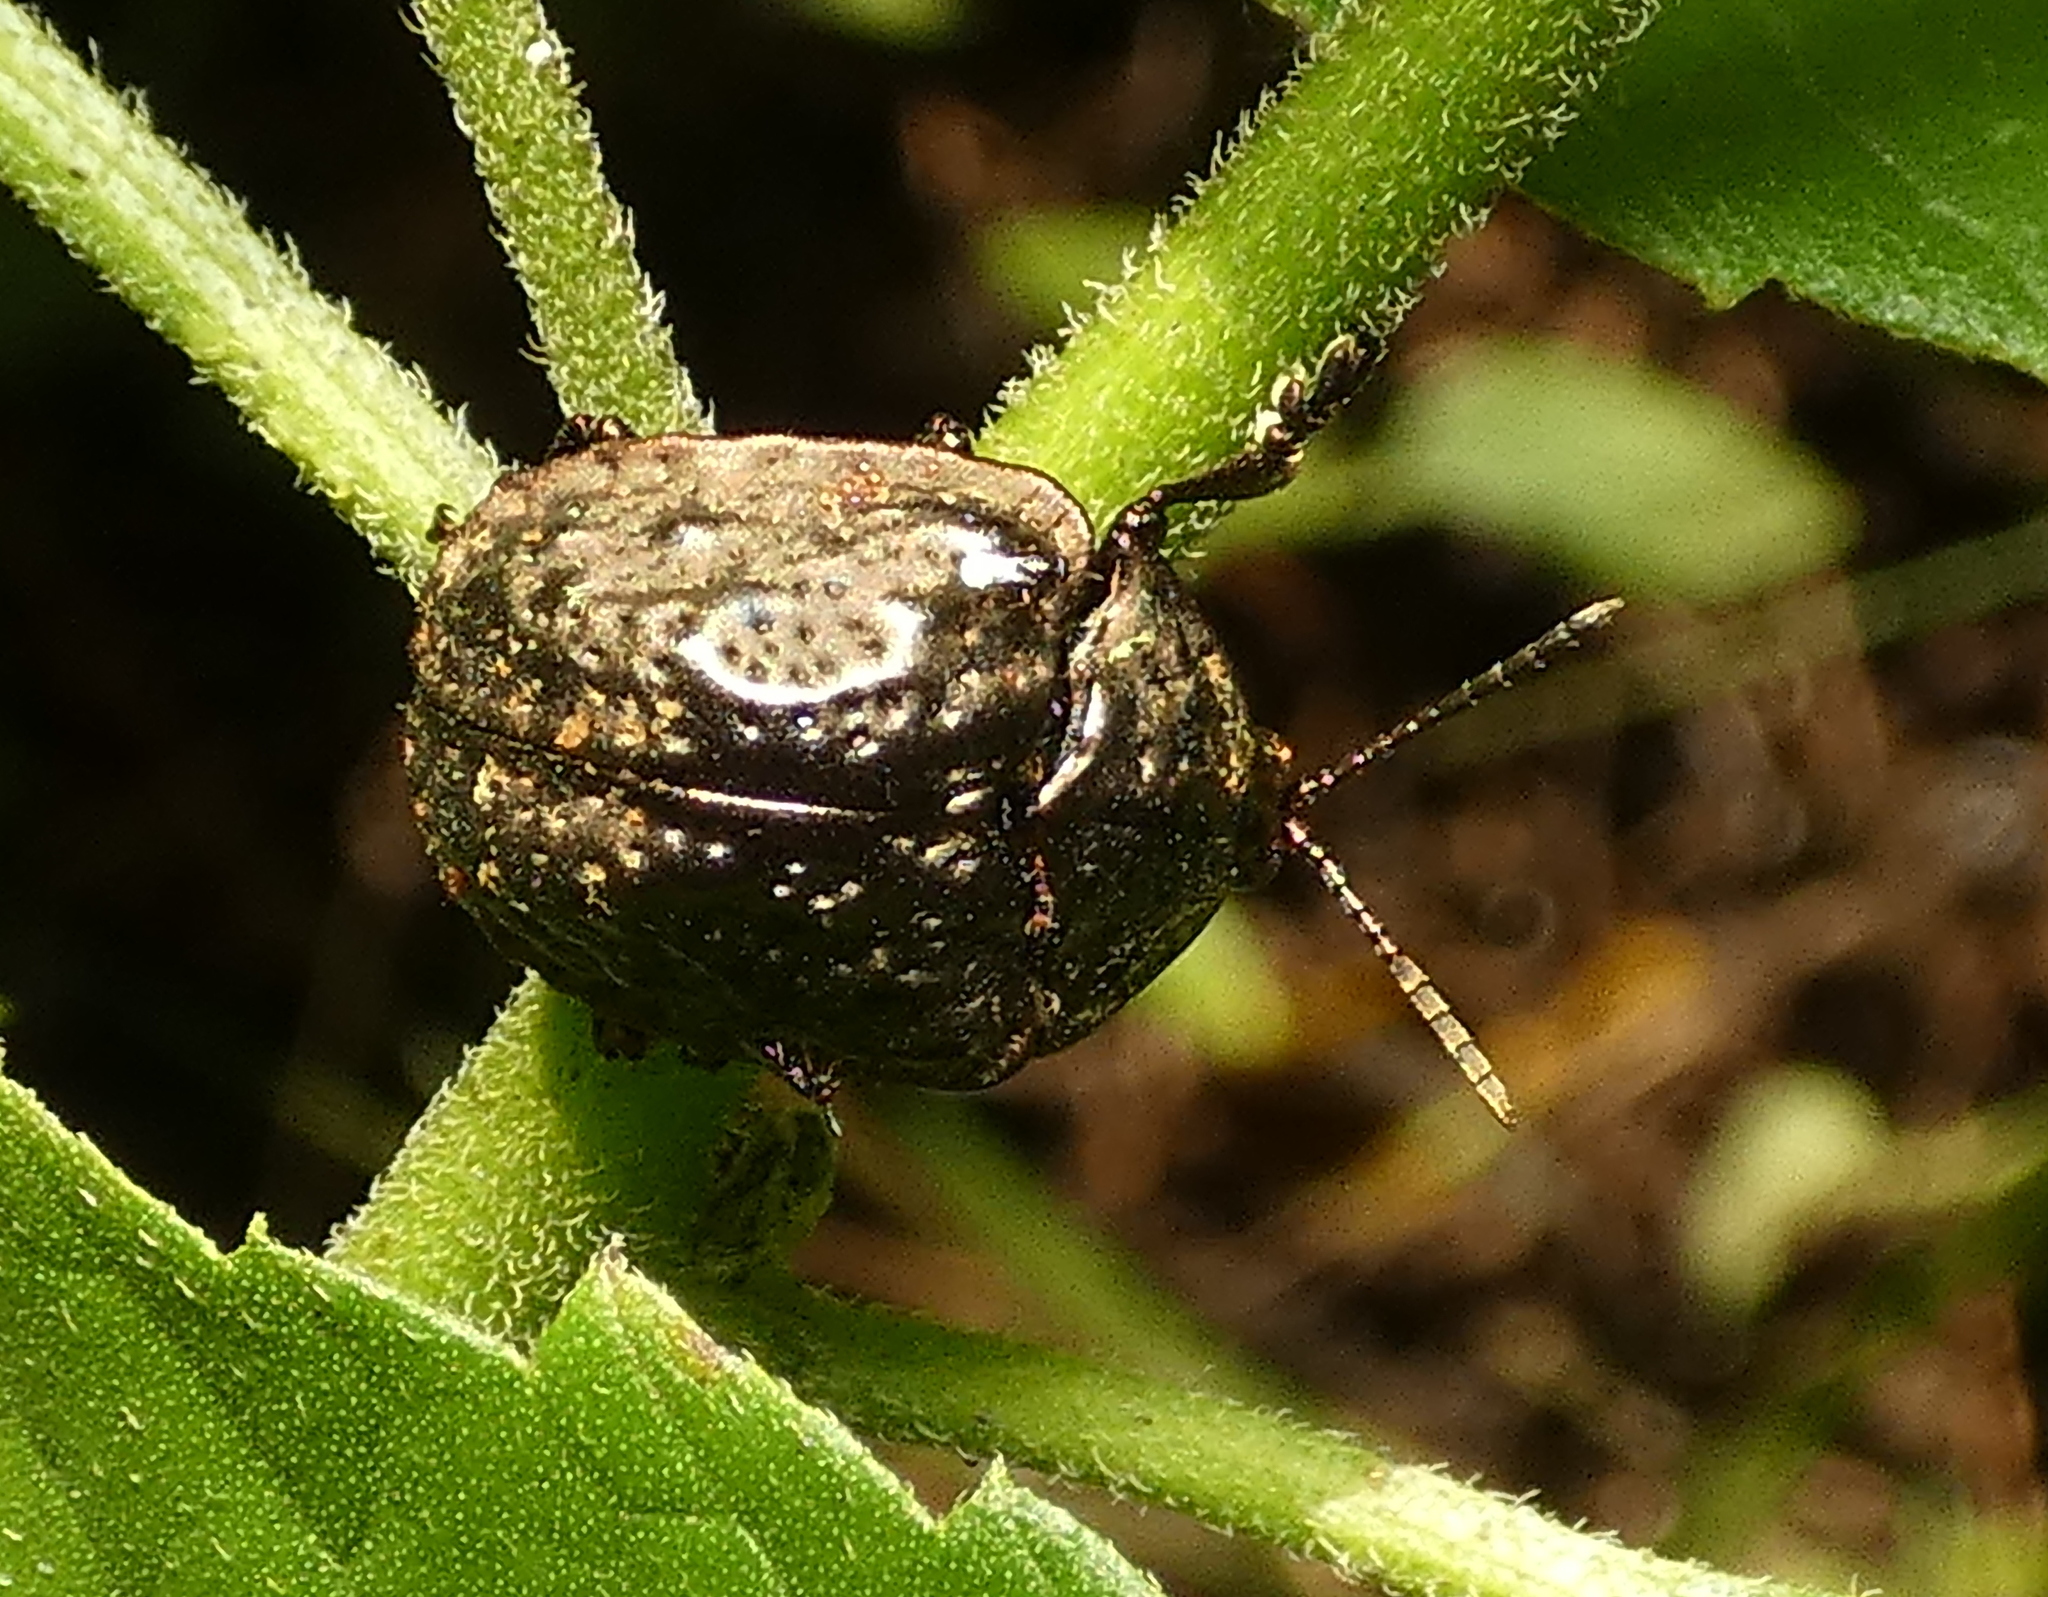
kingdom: Animalia
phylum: Arthropoda
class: Insecta
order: Coleoptera
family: Chrysomelidae
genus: Polychalca
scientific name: Polychalca aerea
